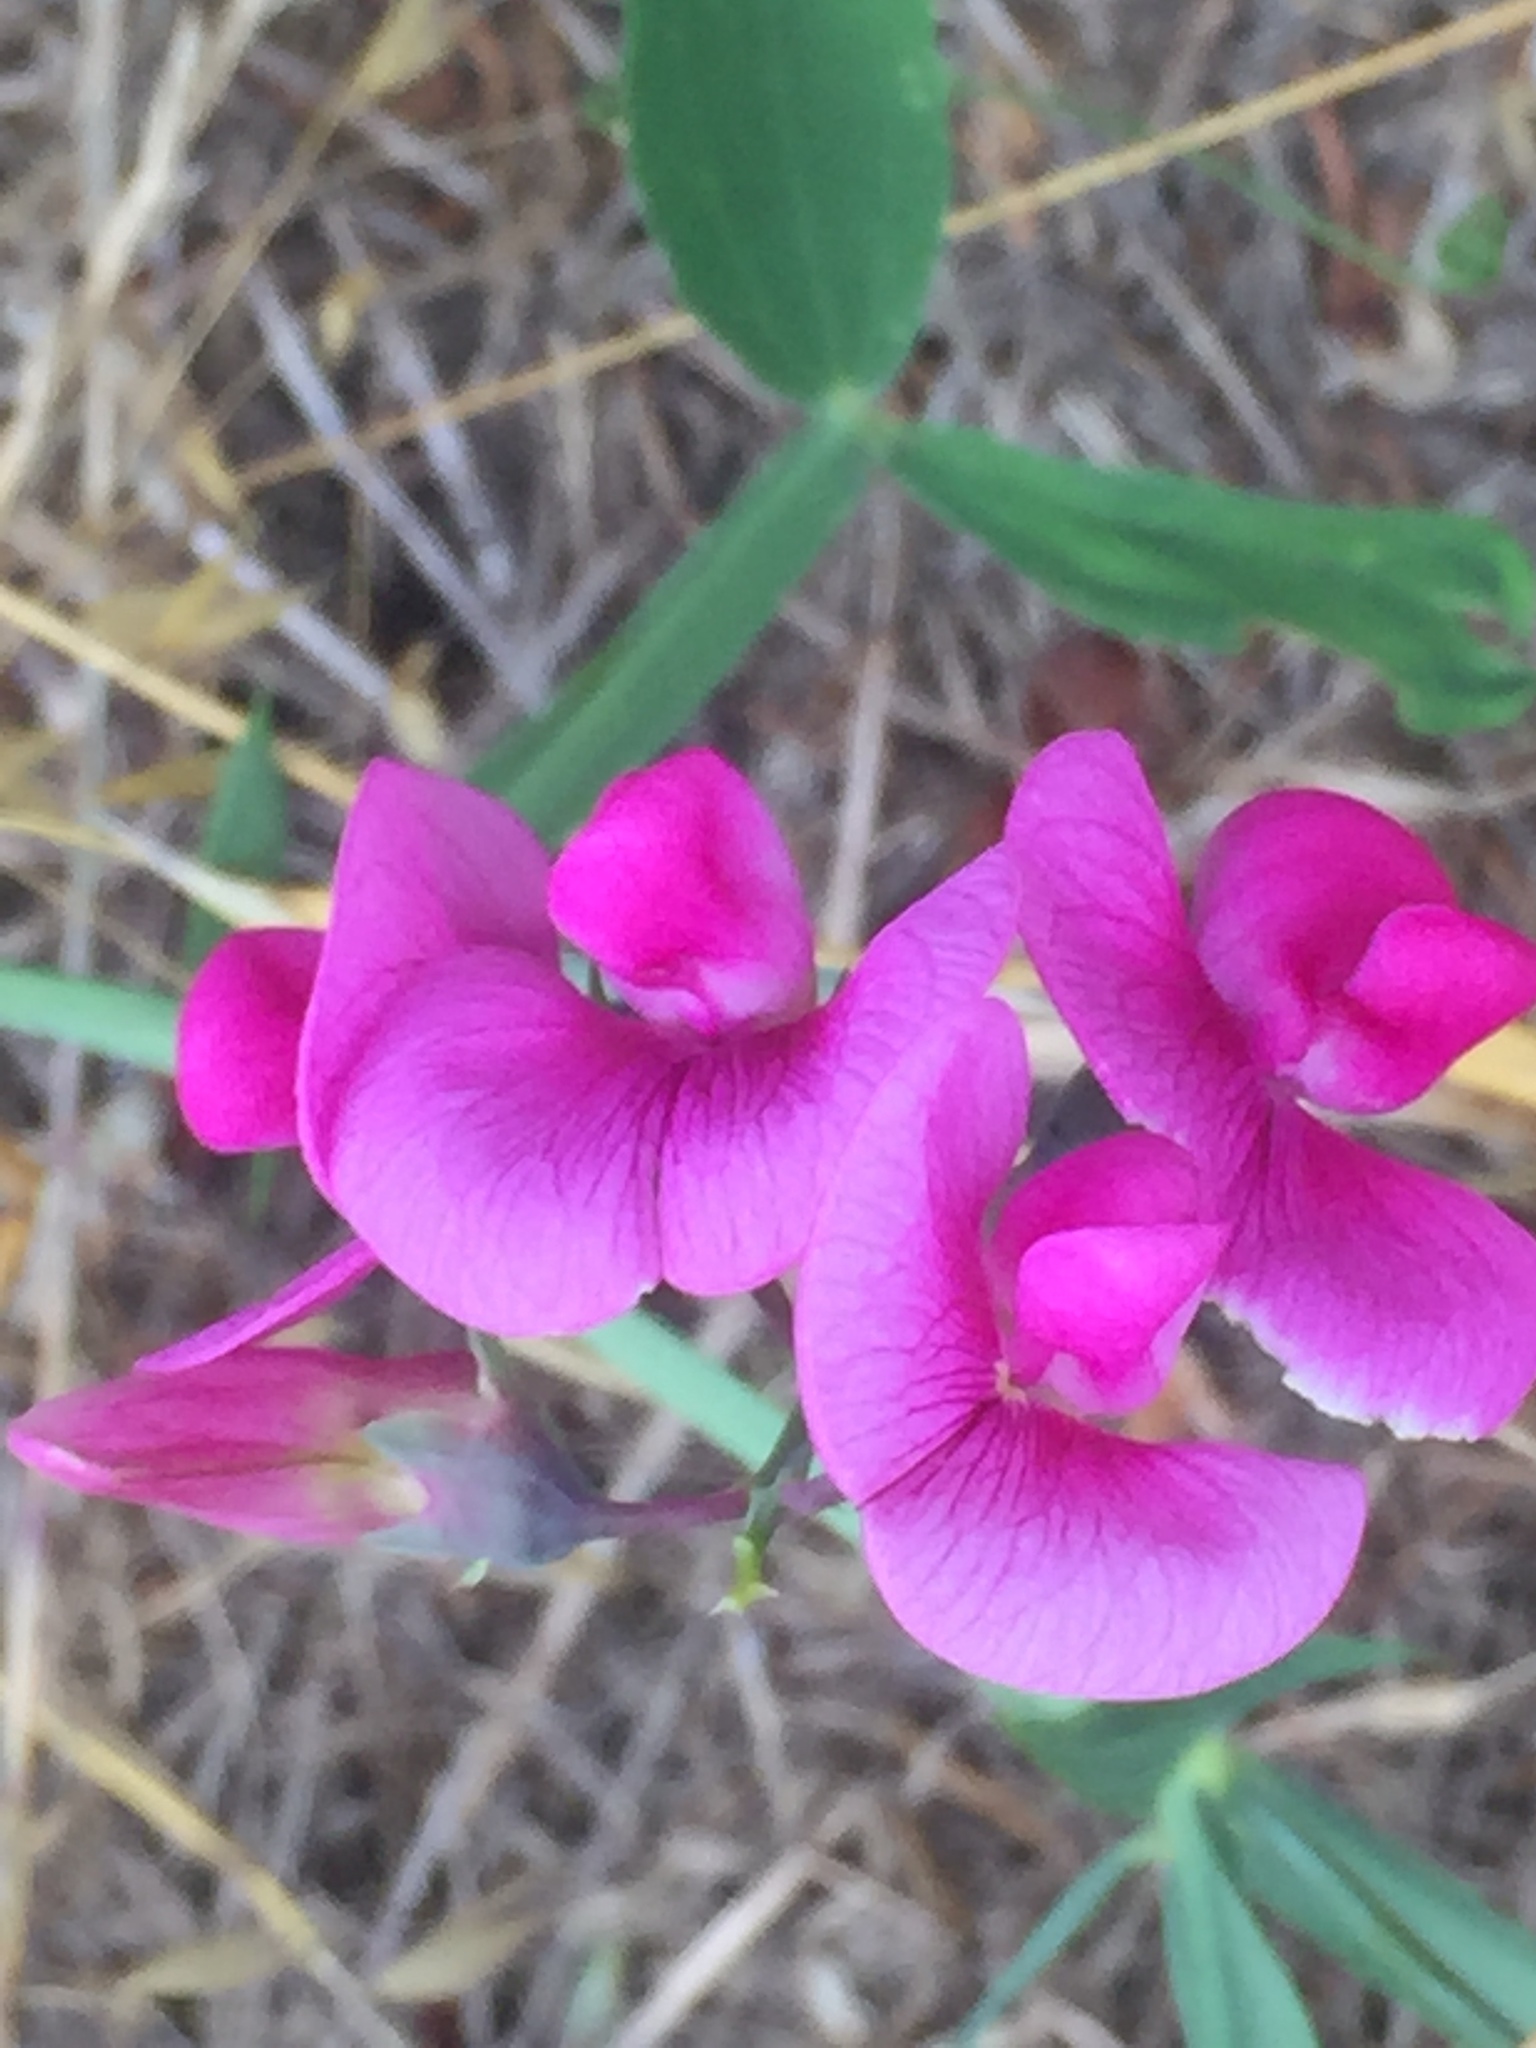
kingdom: Plantae
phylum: Tracheophyta
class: Magnoliopsida
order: Fabales
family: Fabaceae
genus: Lathyrus
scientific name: Lathyrus latifolius
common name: Perennial pea
